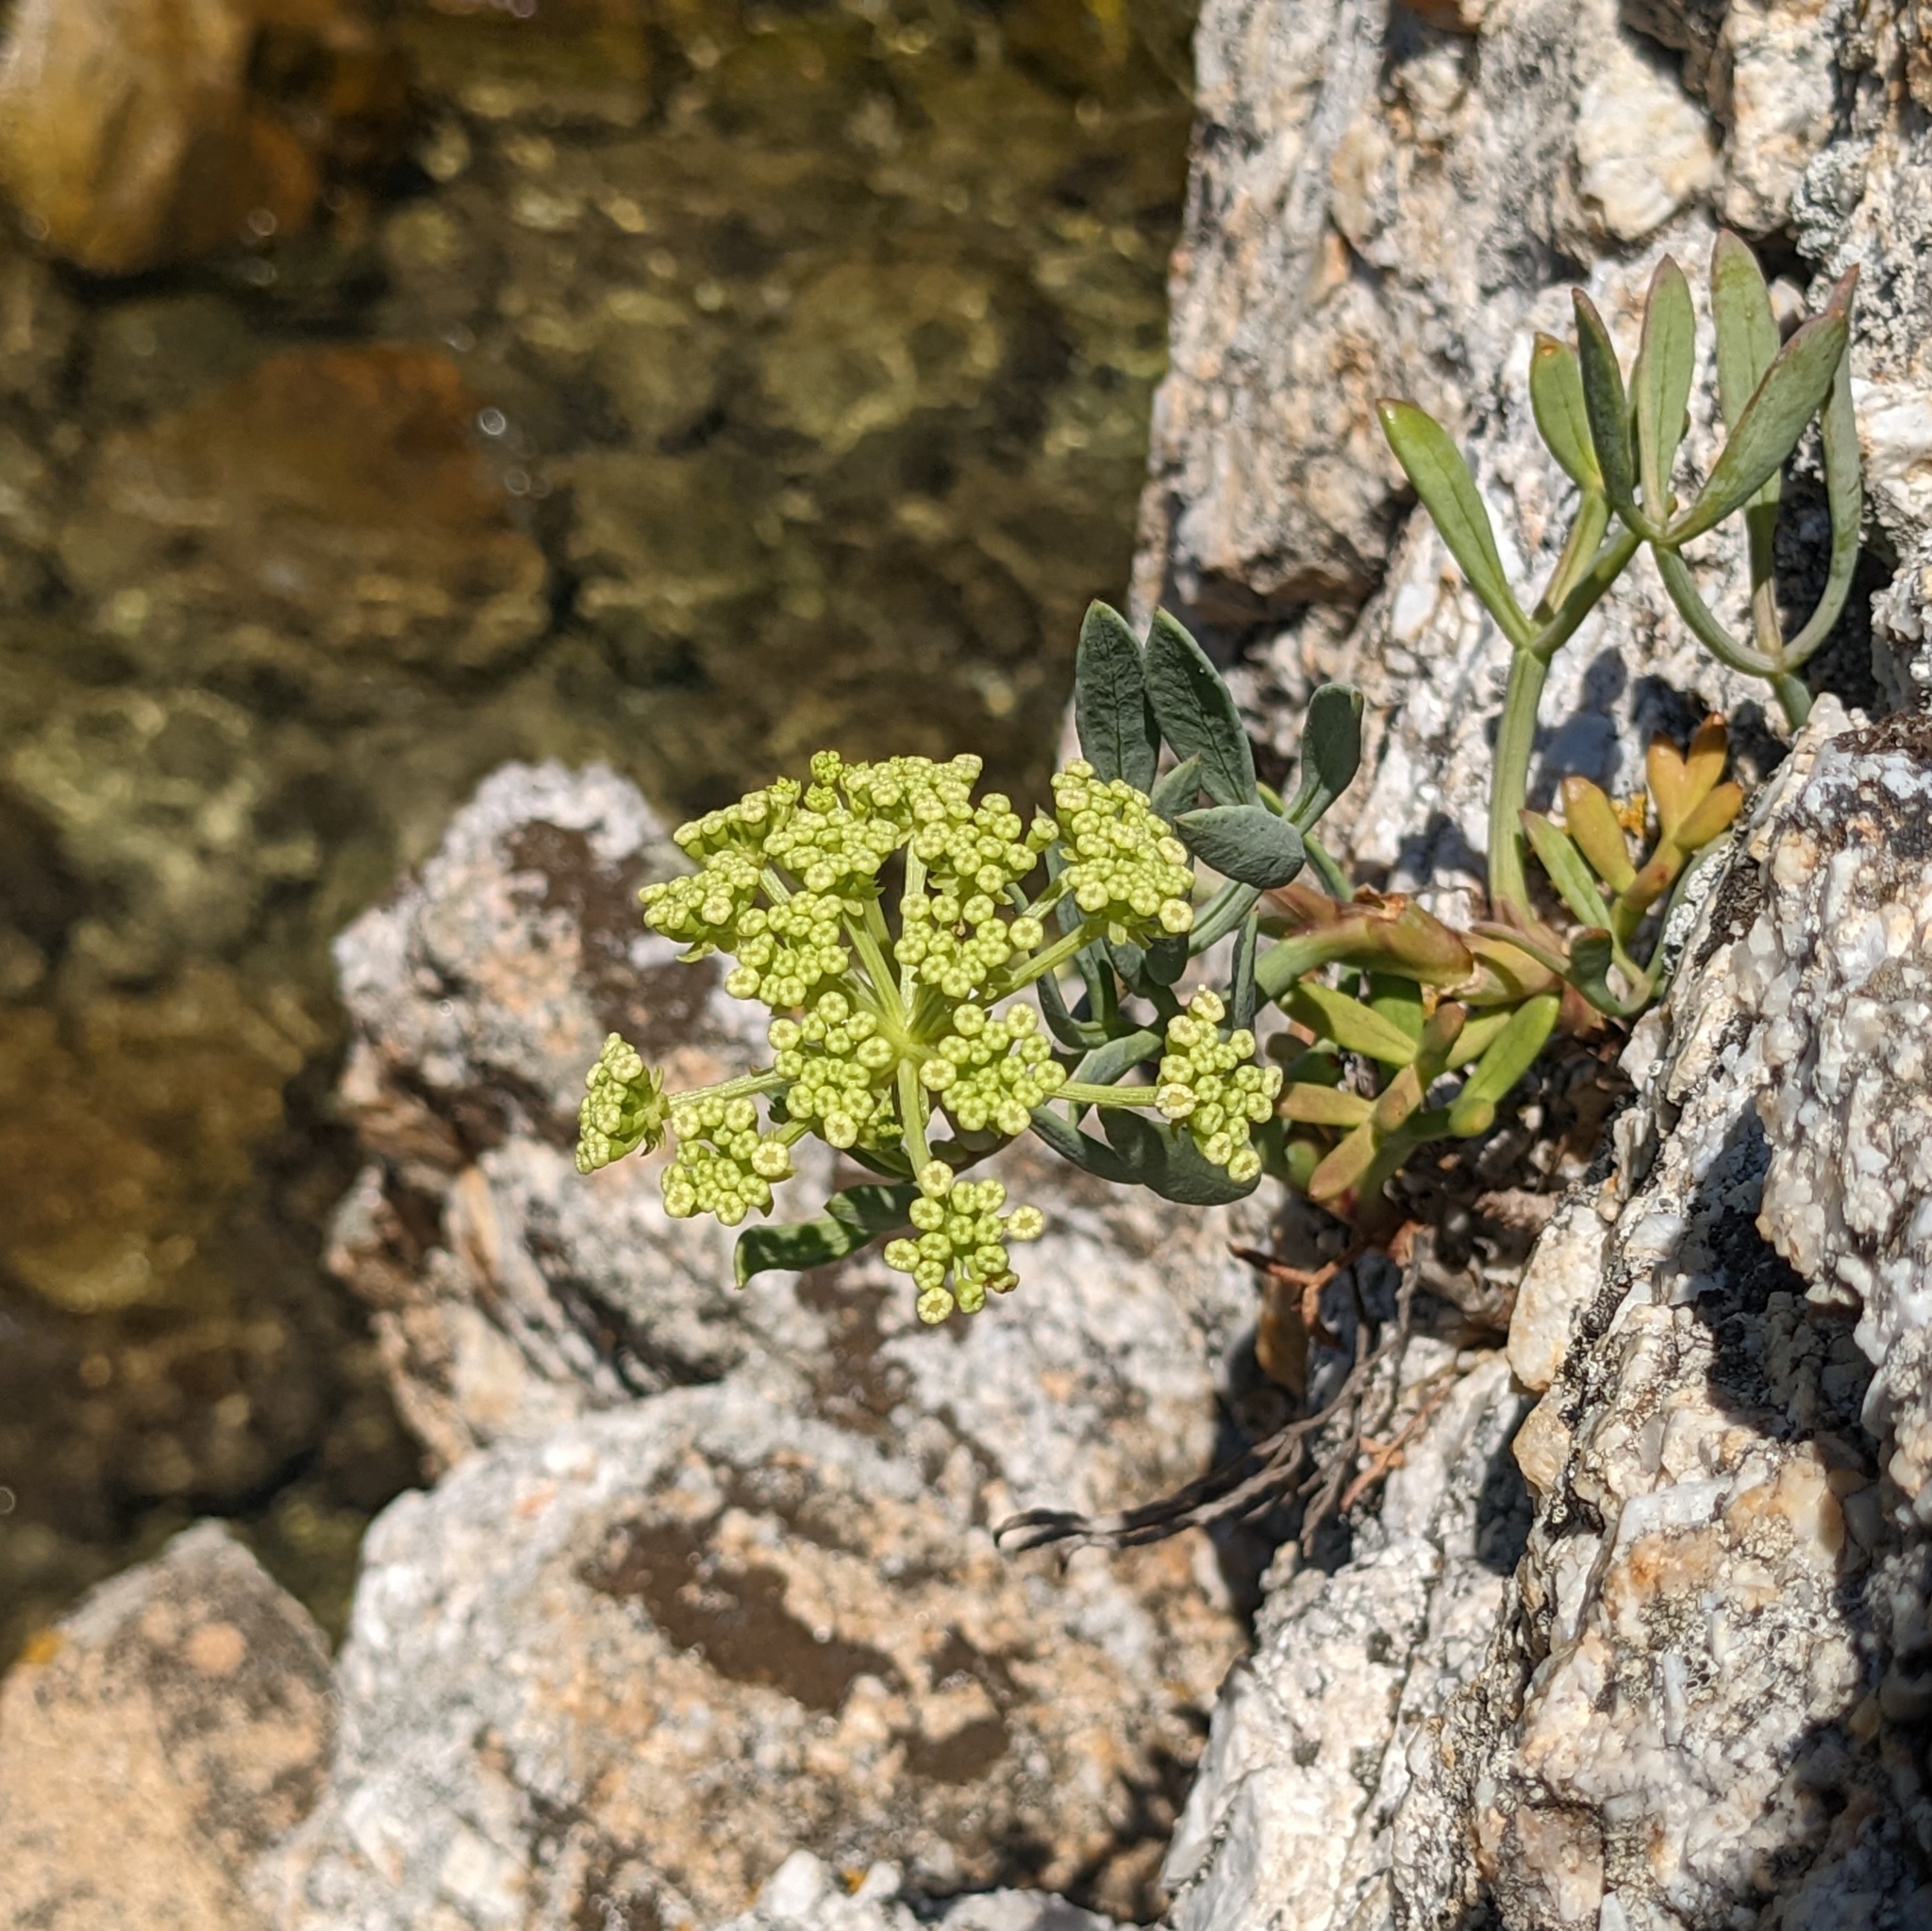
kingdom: Plantae
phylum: Tracheophyta
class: Magnoliopsida
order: Apiales
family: Apiaceae
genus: Crithmum
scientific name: Crithmum maritimum
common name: Rock samphire
